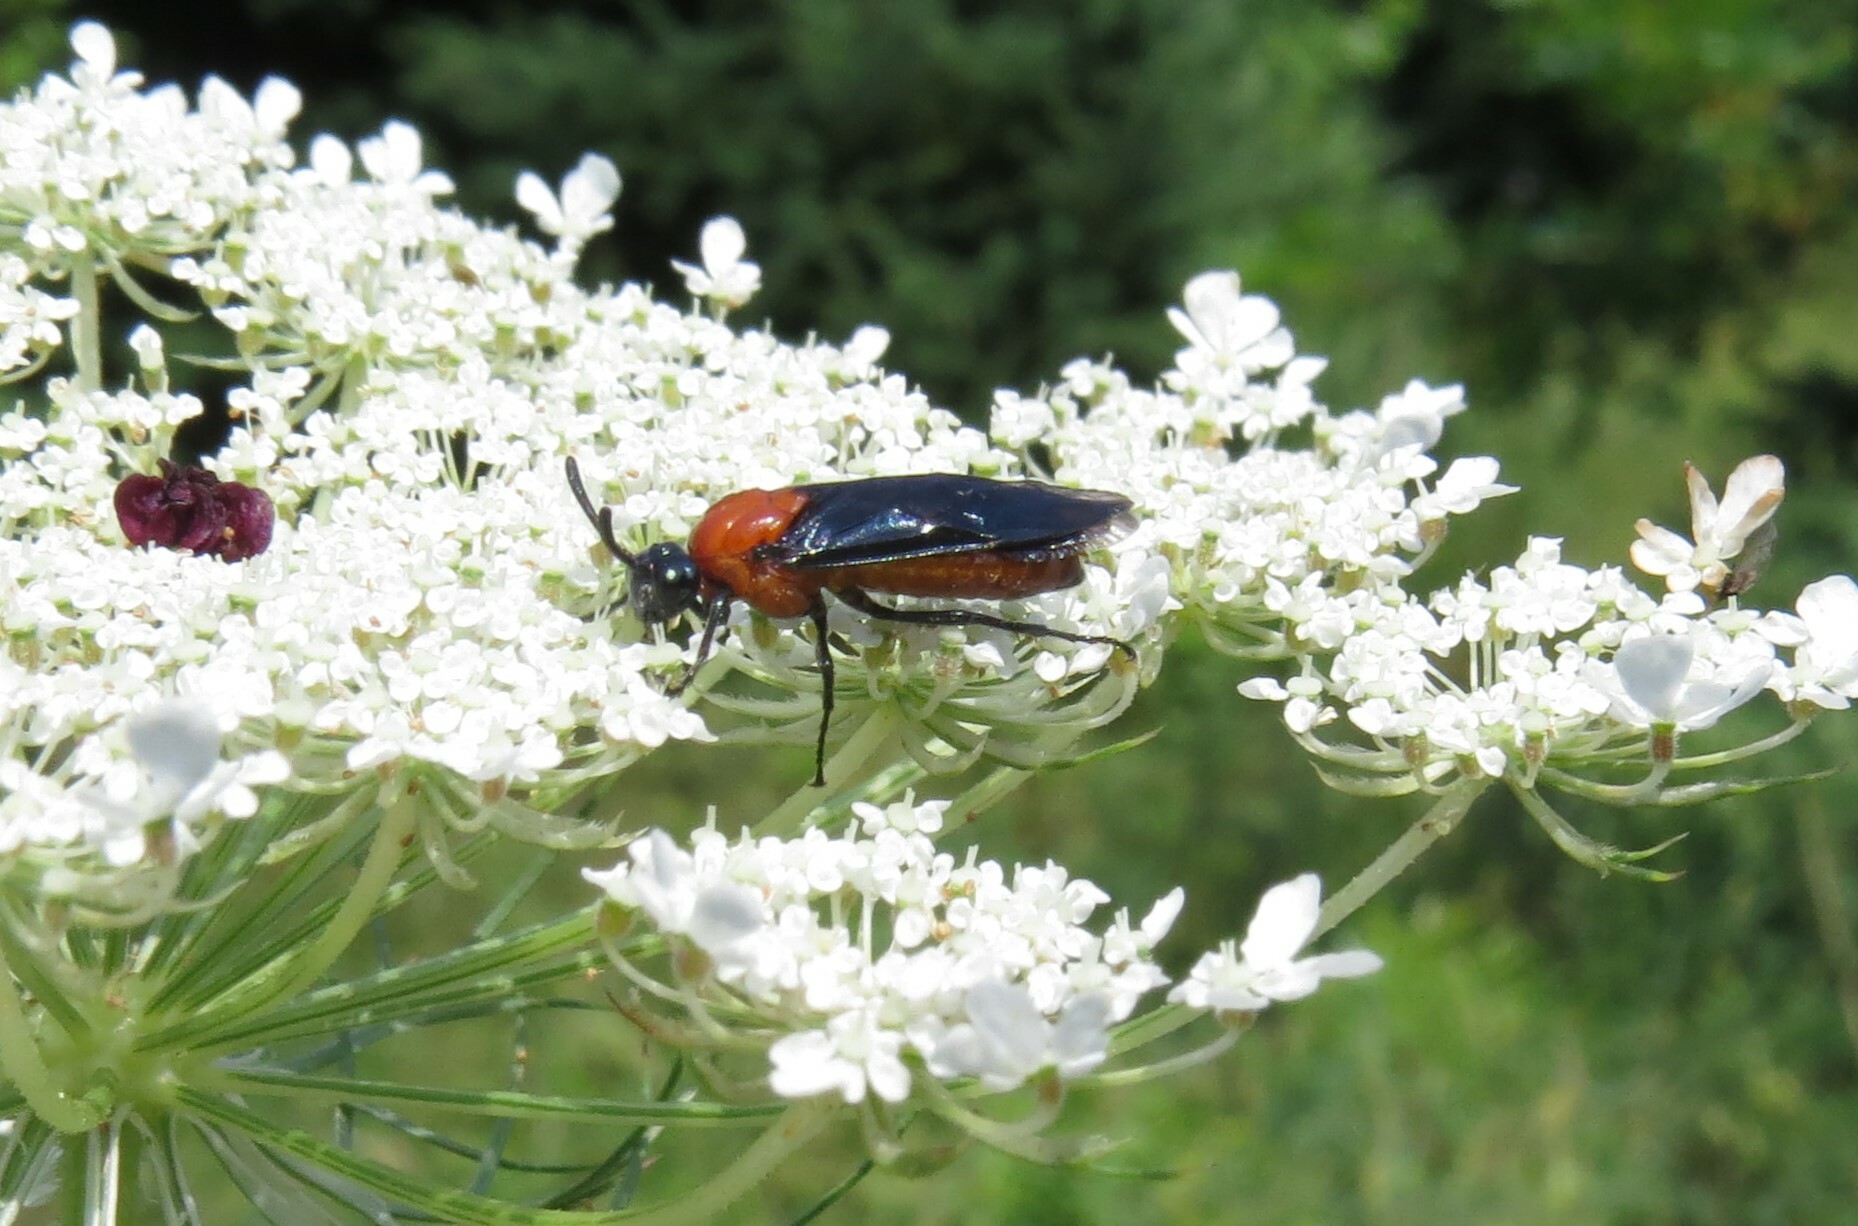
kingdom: Animalia
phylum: Arthropoda
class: Insecta
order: Hymenoptera
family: Argidae
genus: Arge
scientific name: Arge pectoralis
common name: Birch sawfly
